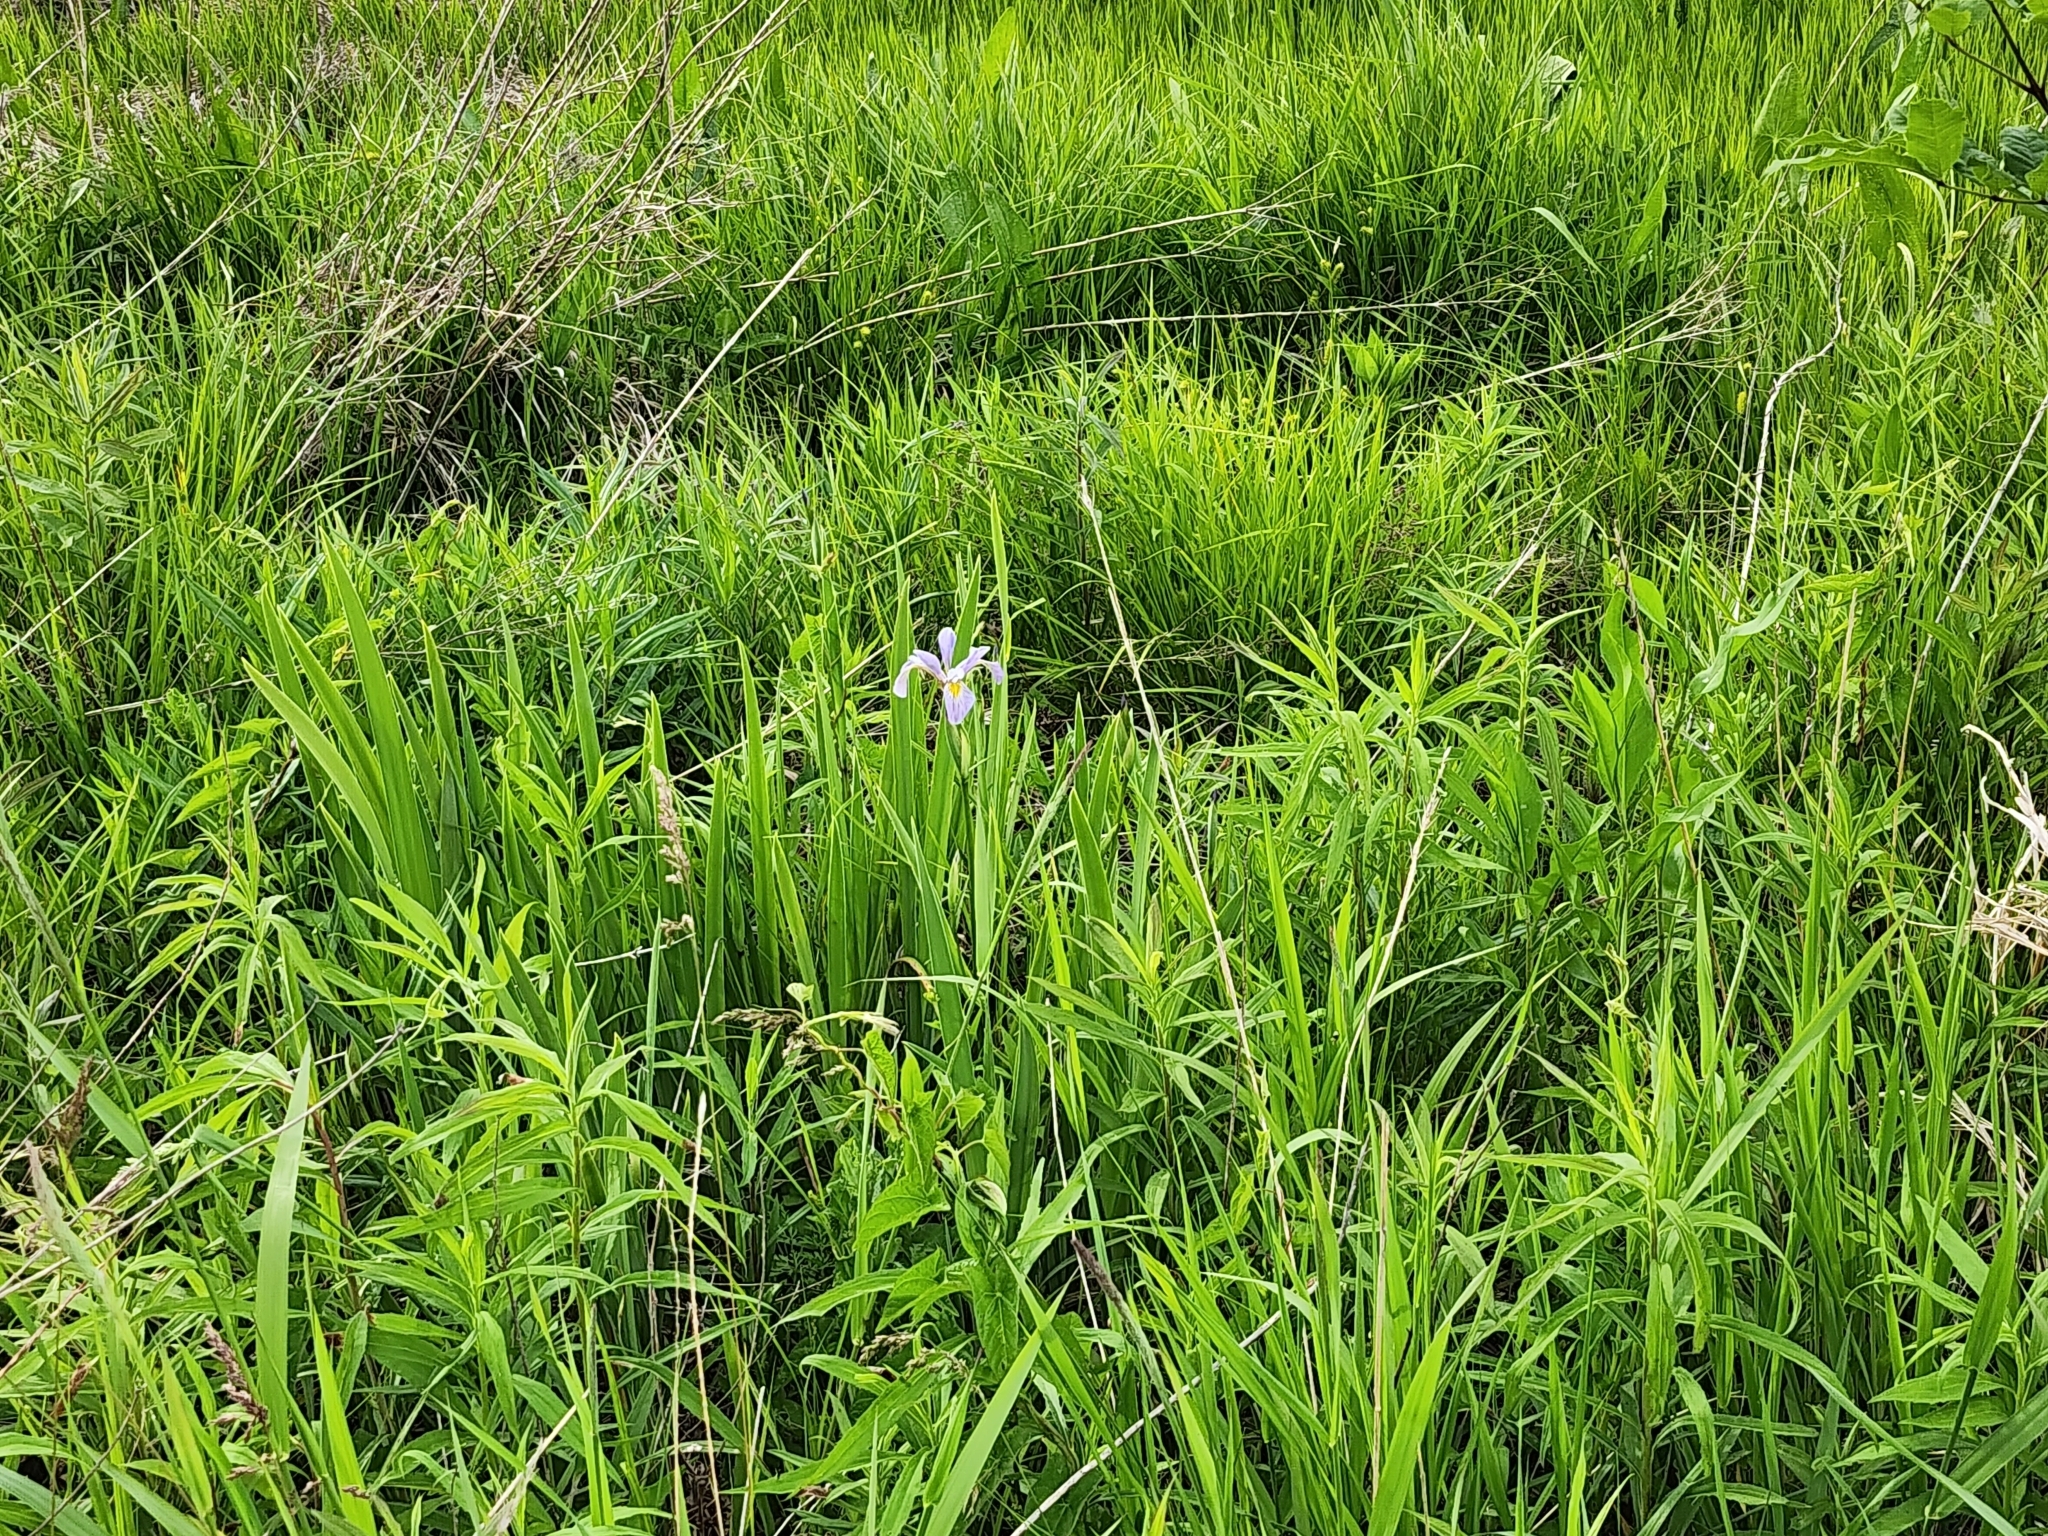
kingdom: Plantae
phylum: Tracheophyta
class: Liliopsida
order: Asparagales
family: Iridaceae
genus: Iris
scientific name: Iris virginica
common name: Southern blue flag
